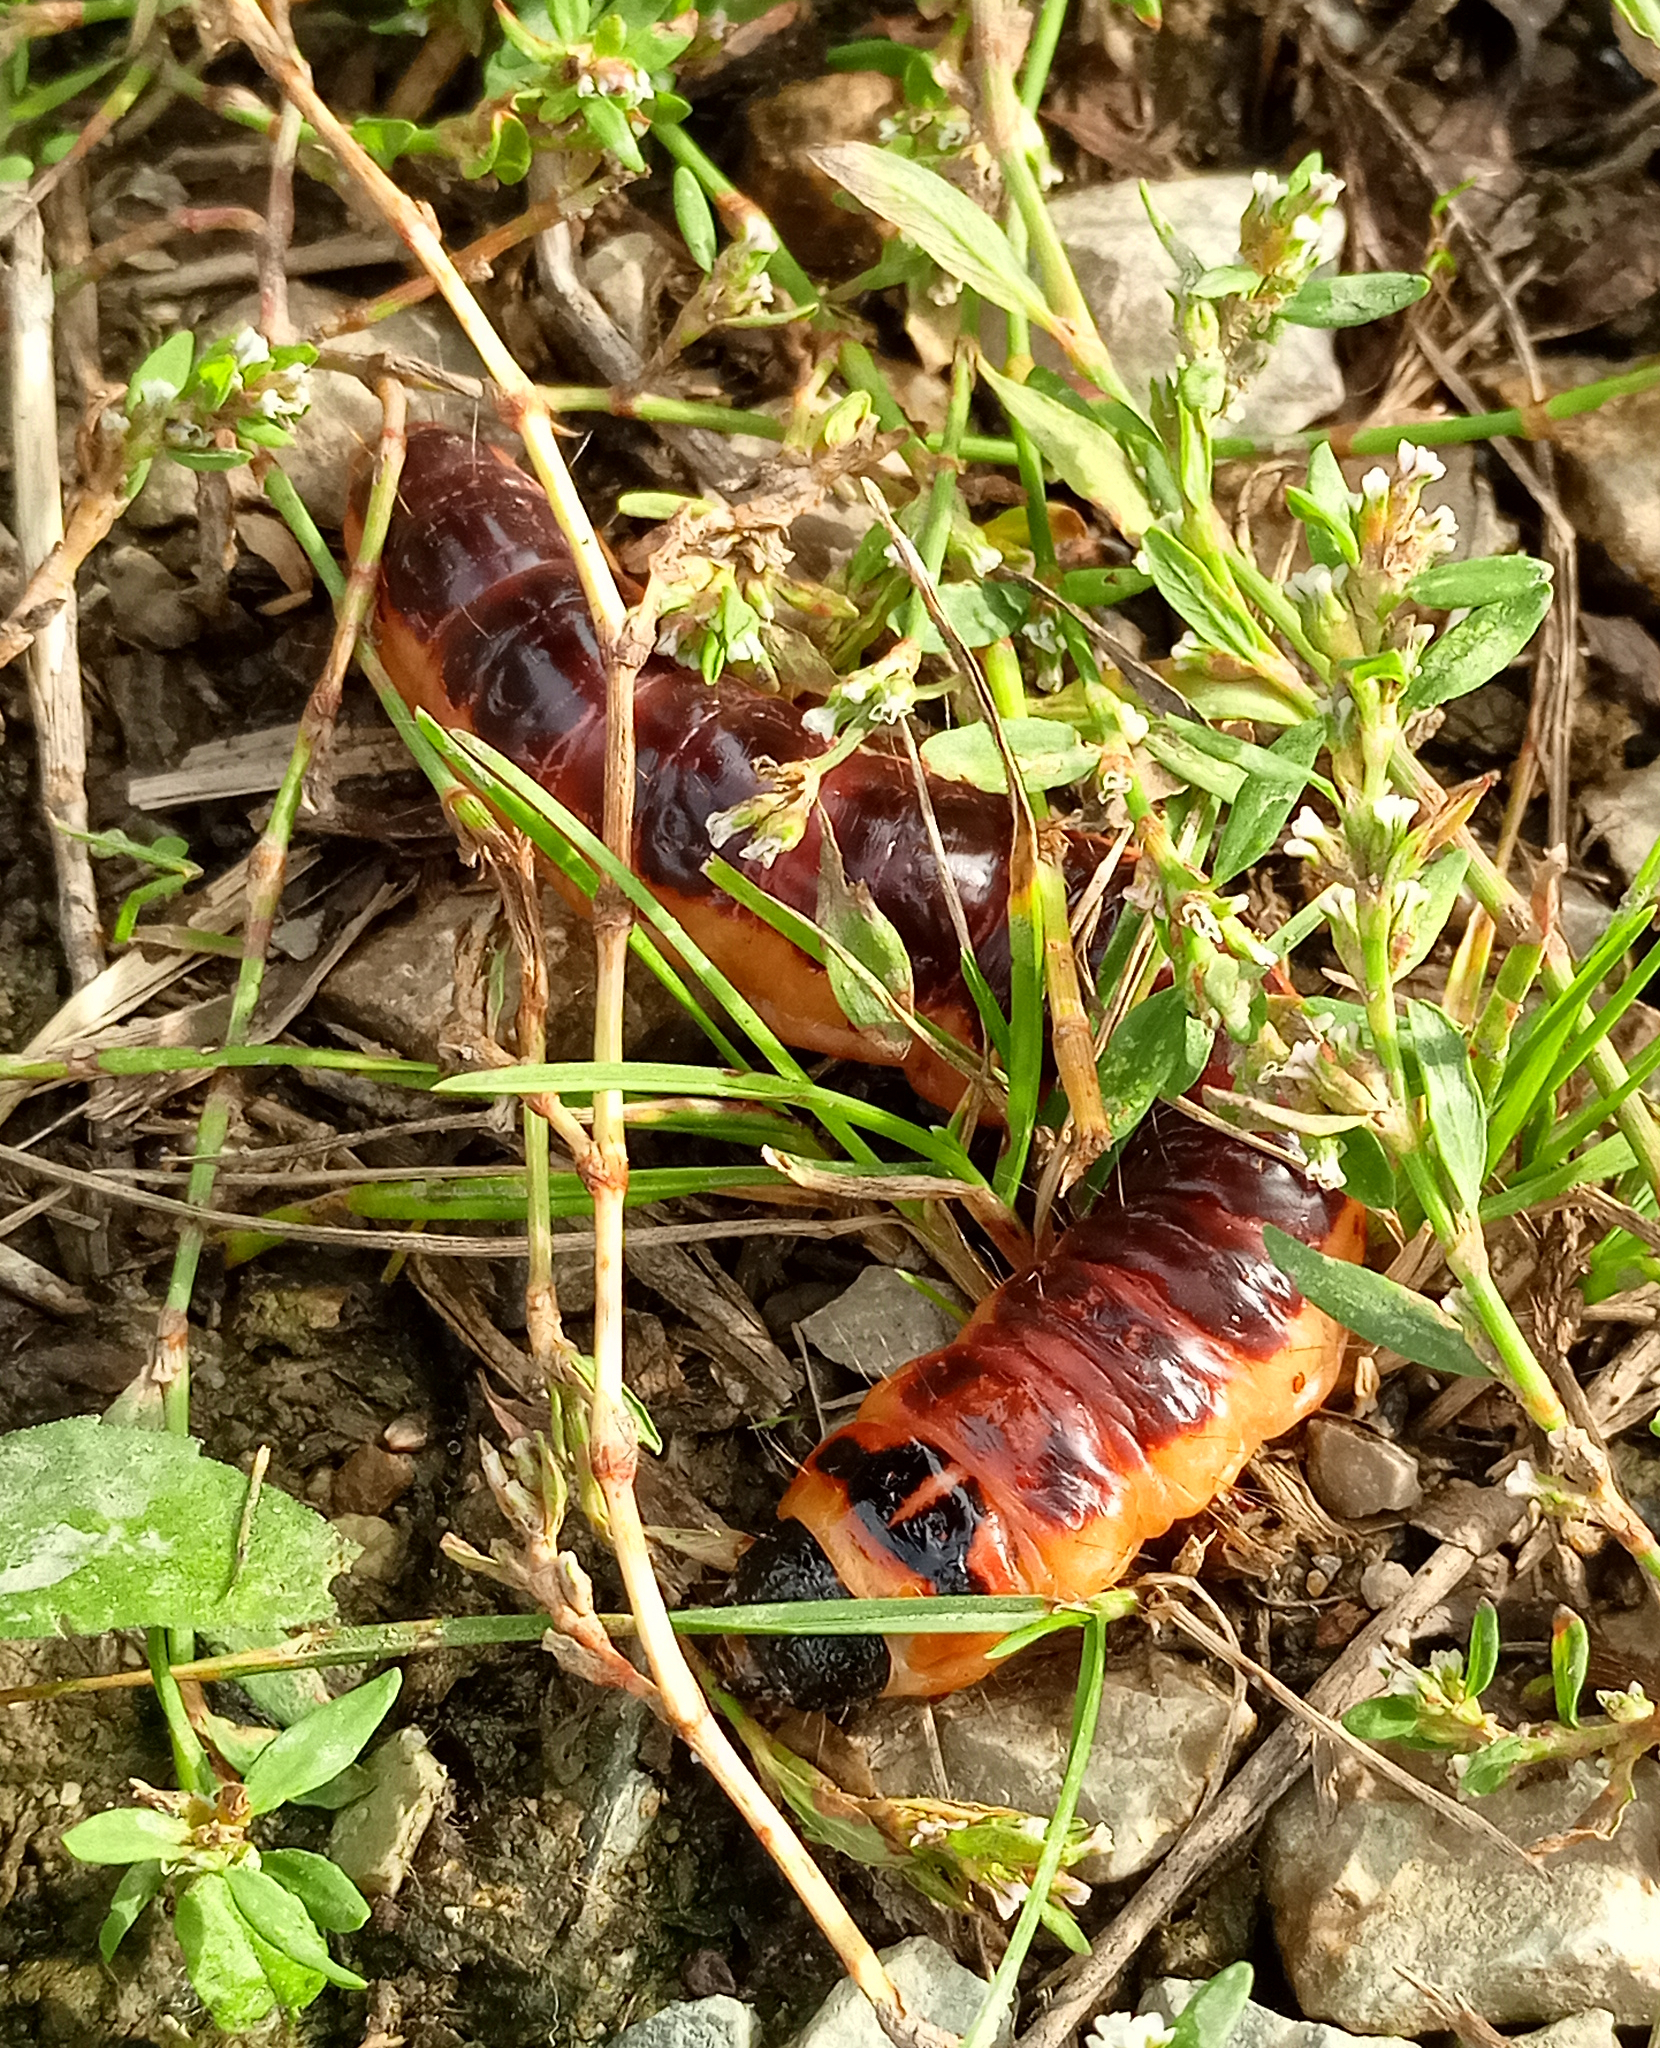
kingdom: Animalia
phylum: Arthropoda
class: Insecta
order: Lepidoptera
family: Cossidae
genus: Cossus
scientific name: Cossus cossus
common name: Goat moth
